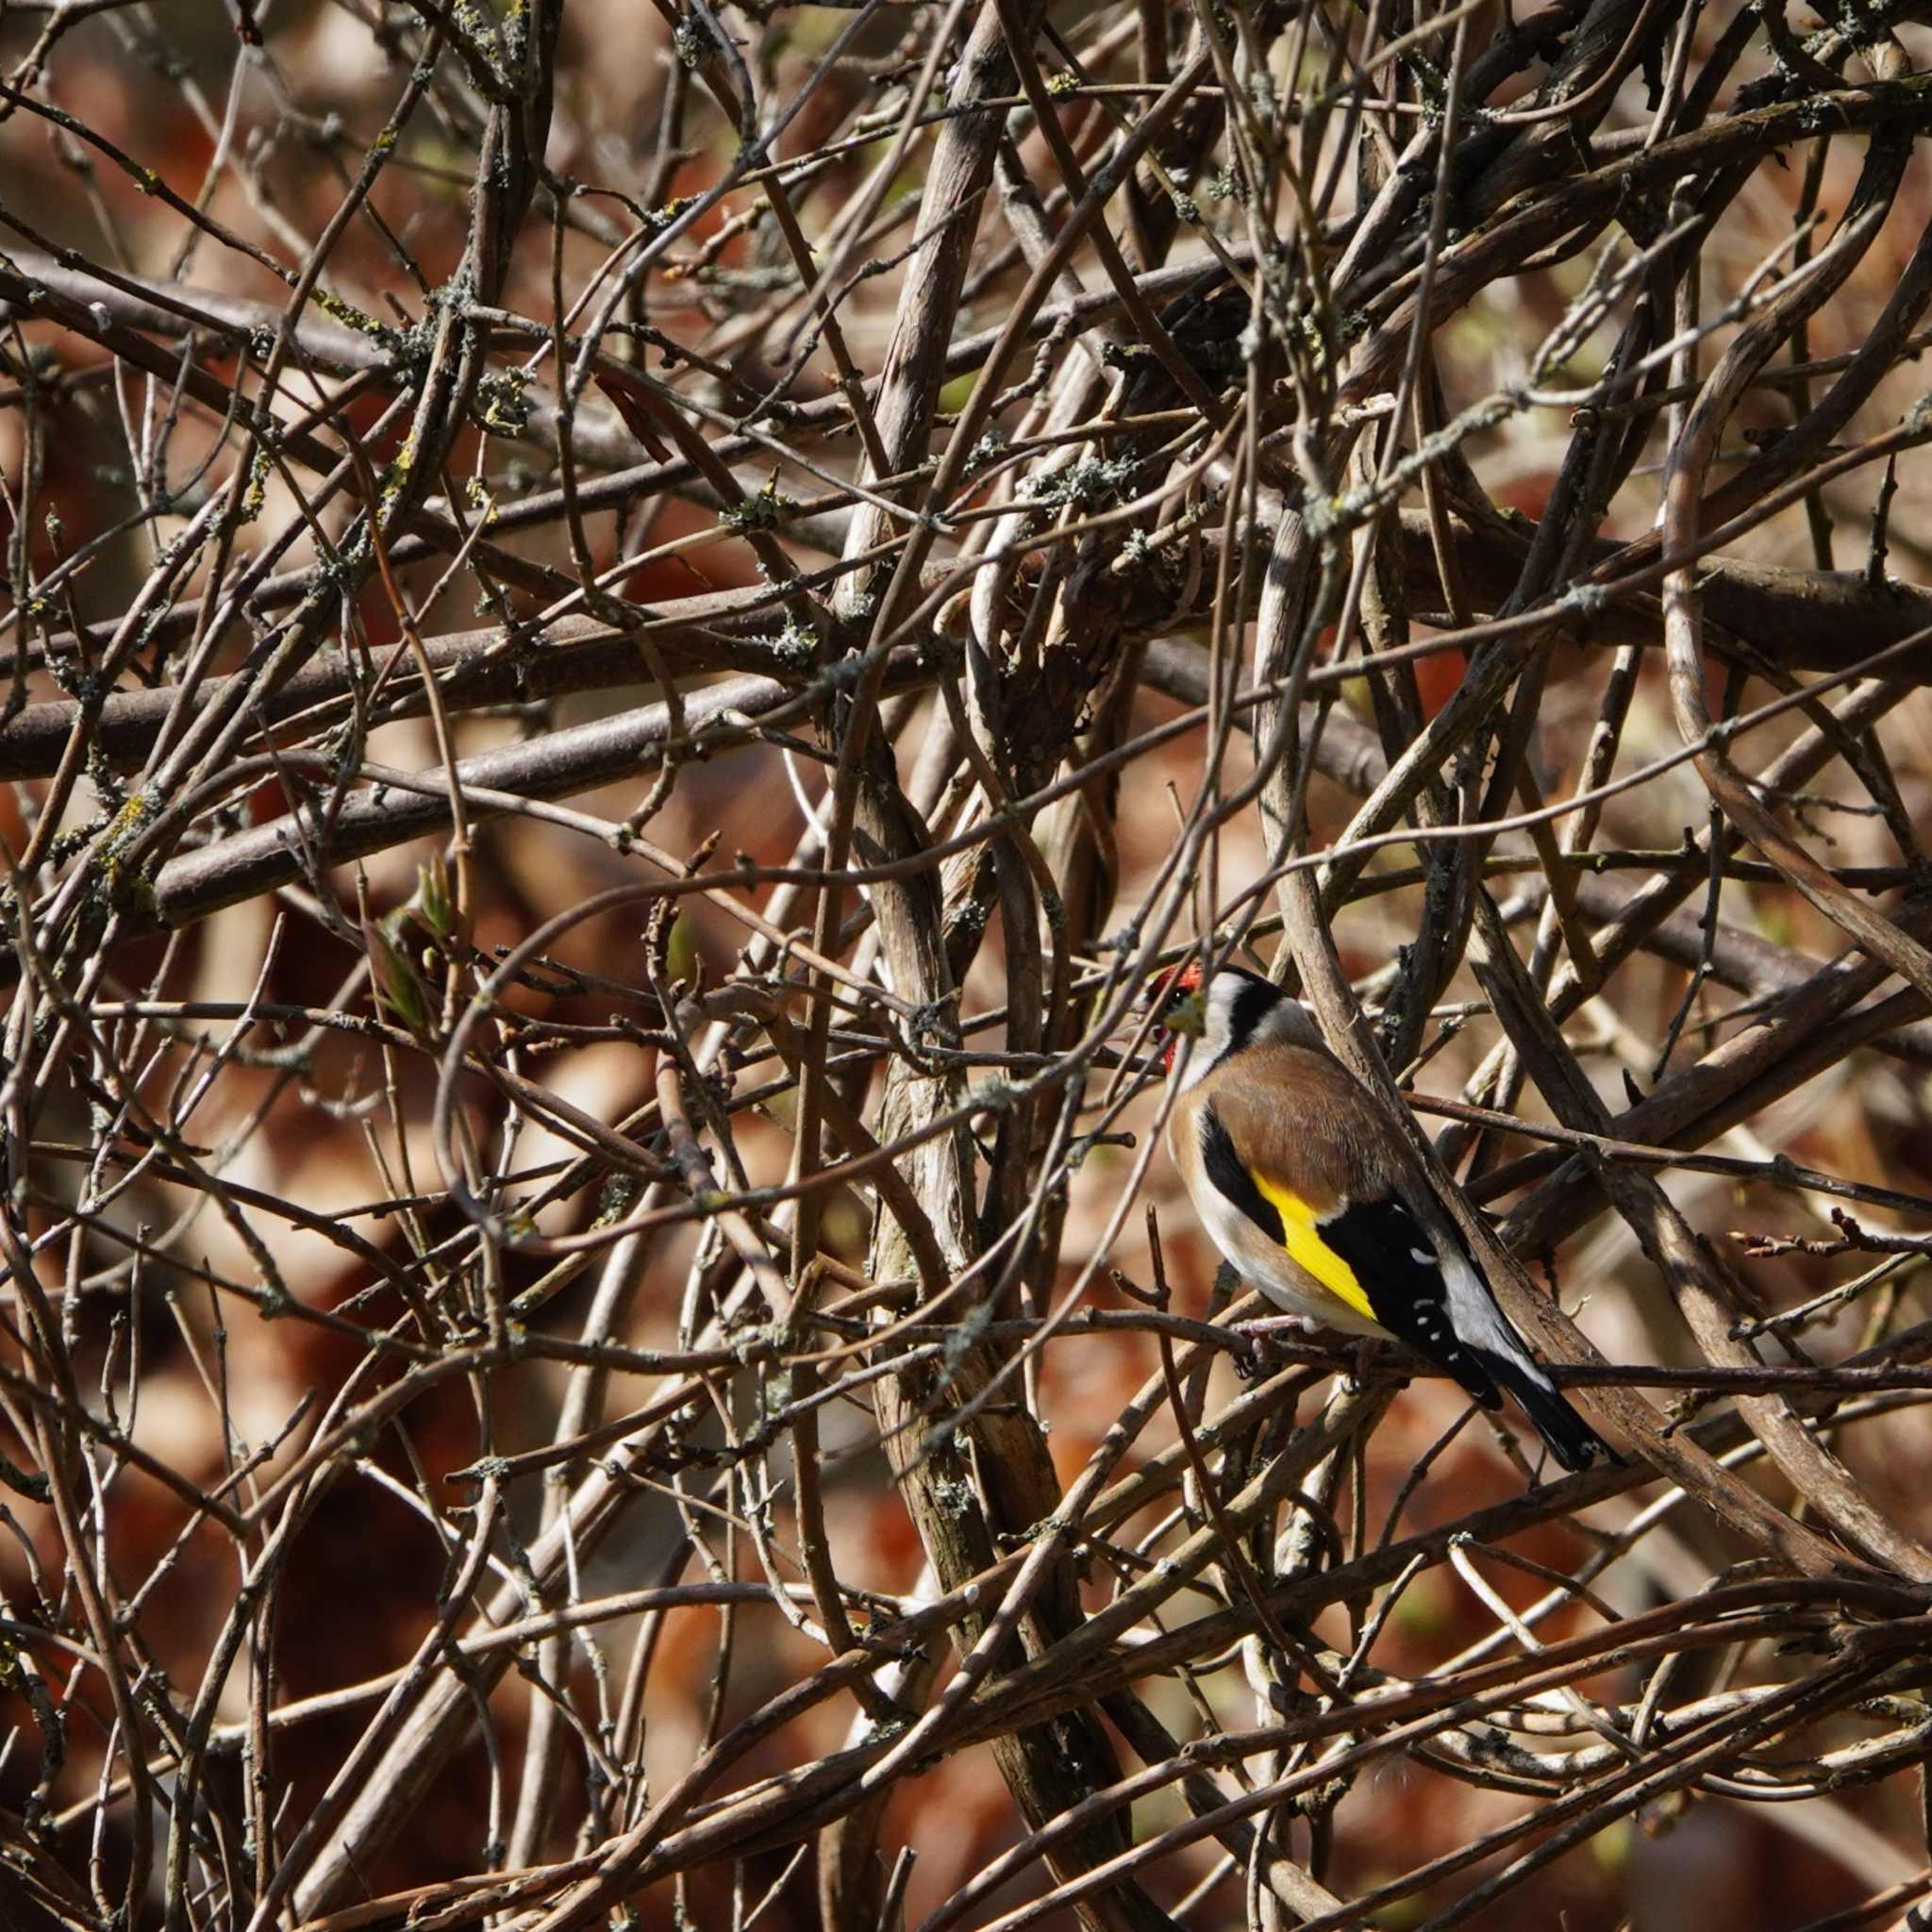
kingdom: Animalia
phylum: Chordata
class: Aves
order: Passeriformes
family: Fringillidae
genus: Carduelis
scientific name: Carduelis carduelis
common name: European goldfinch
